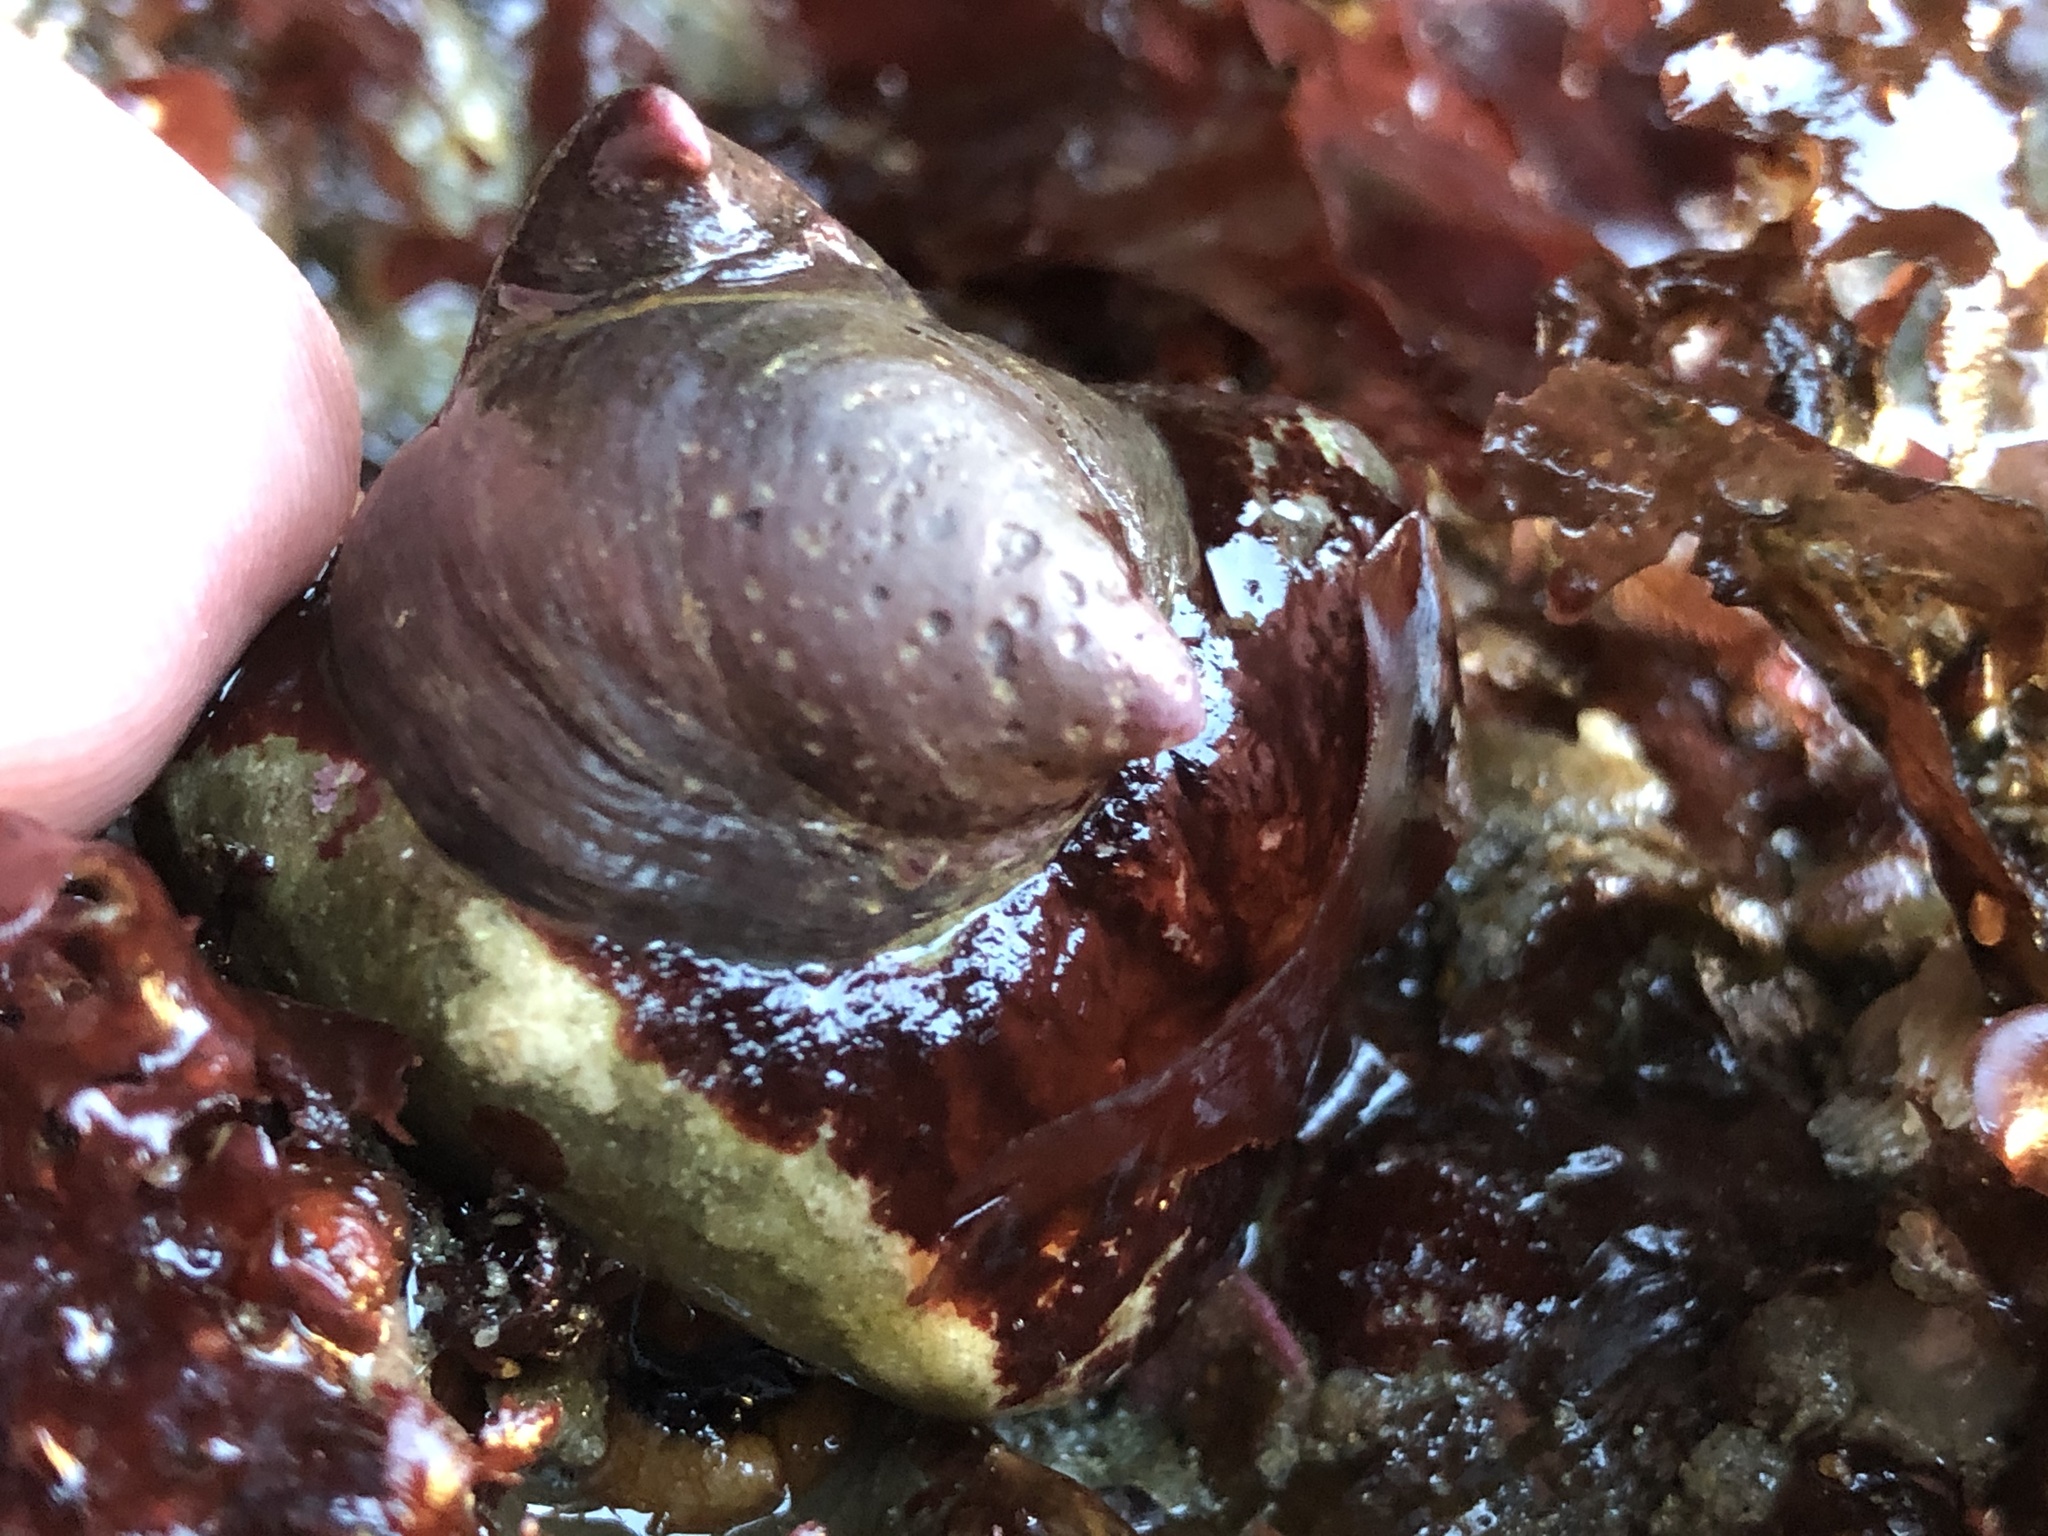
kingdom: Animalia
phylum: Mollusca
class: Gastropoda
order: Littorinimorpha
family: Calyptraeidae
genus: Crepidula
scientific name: Crepidula adunca
